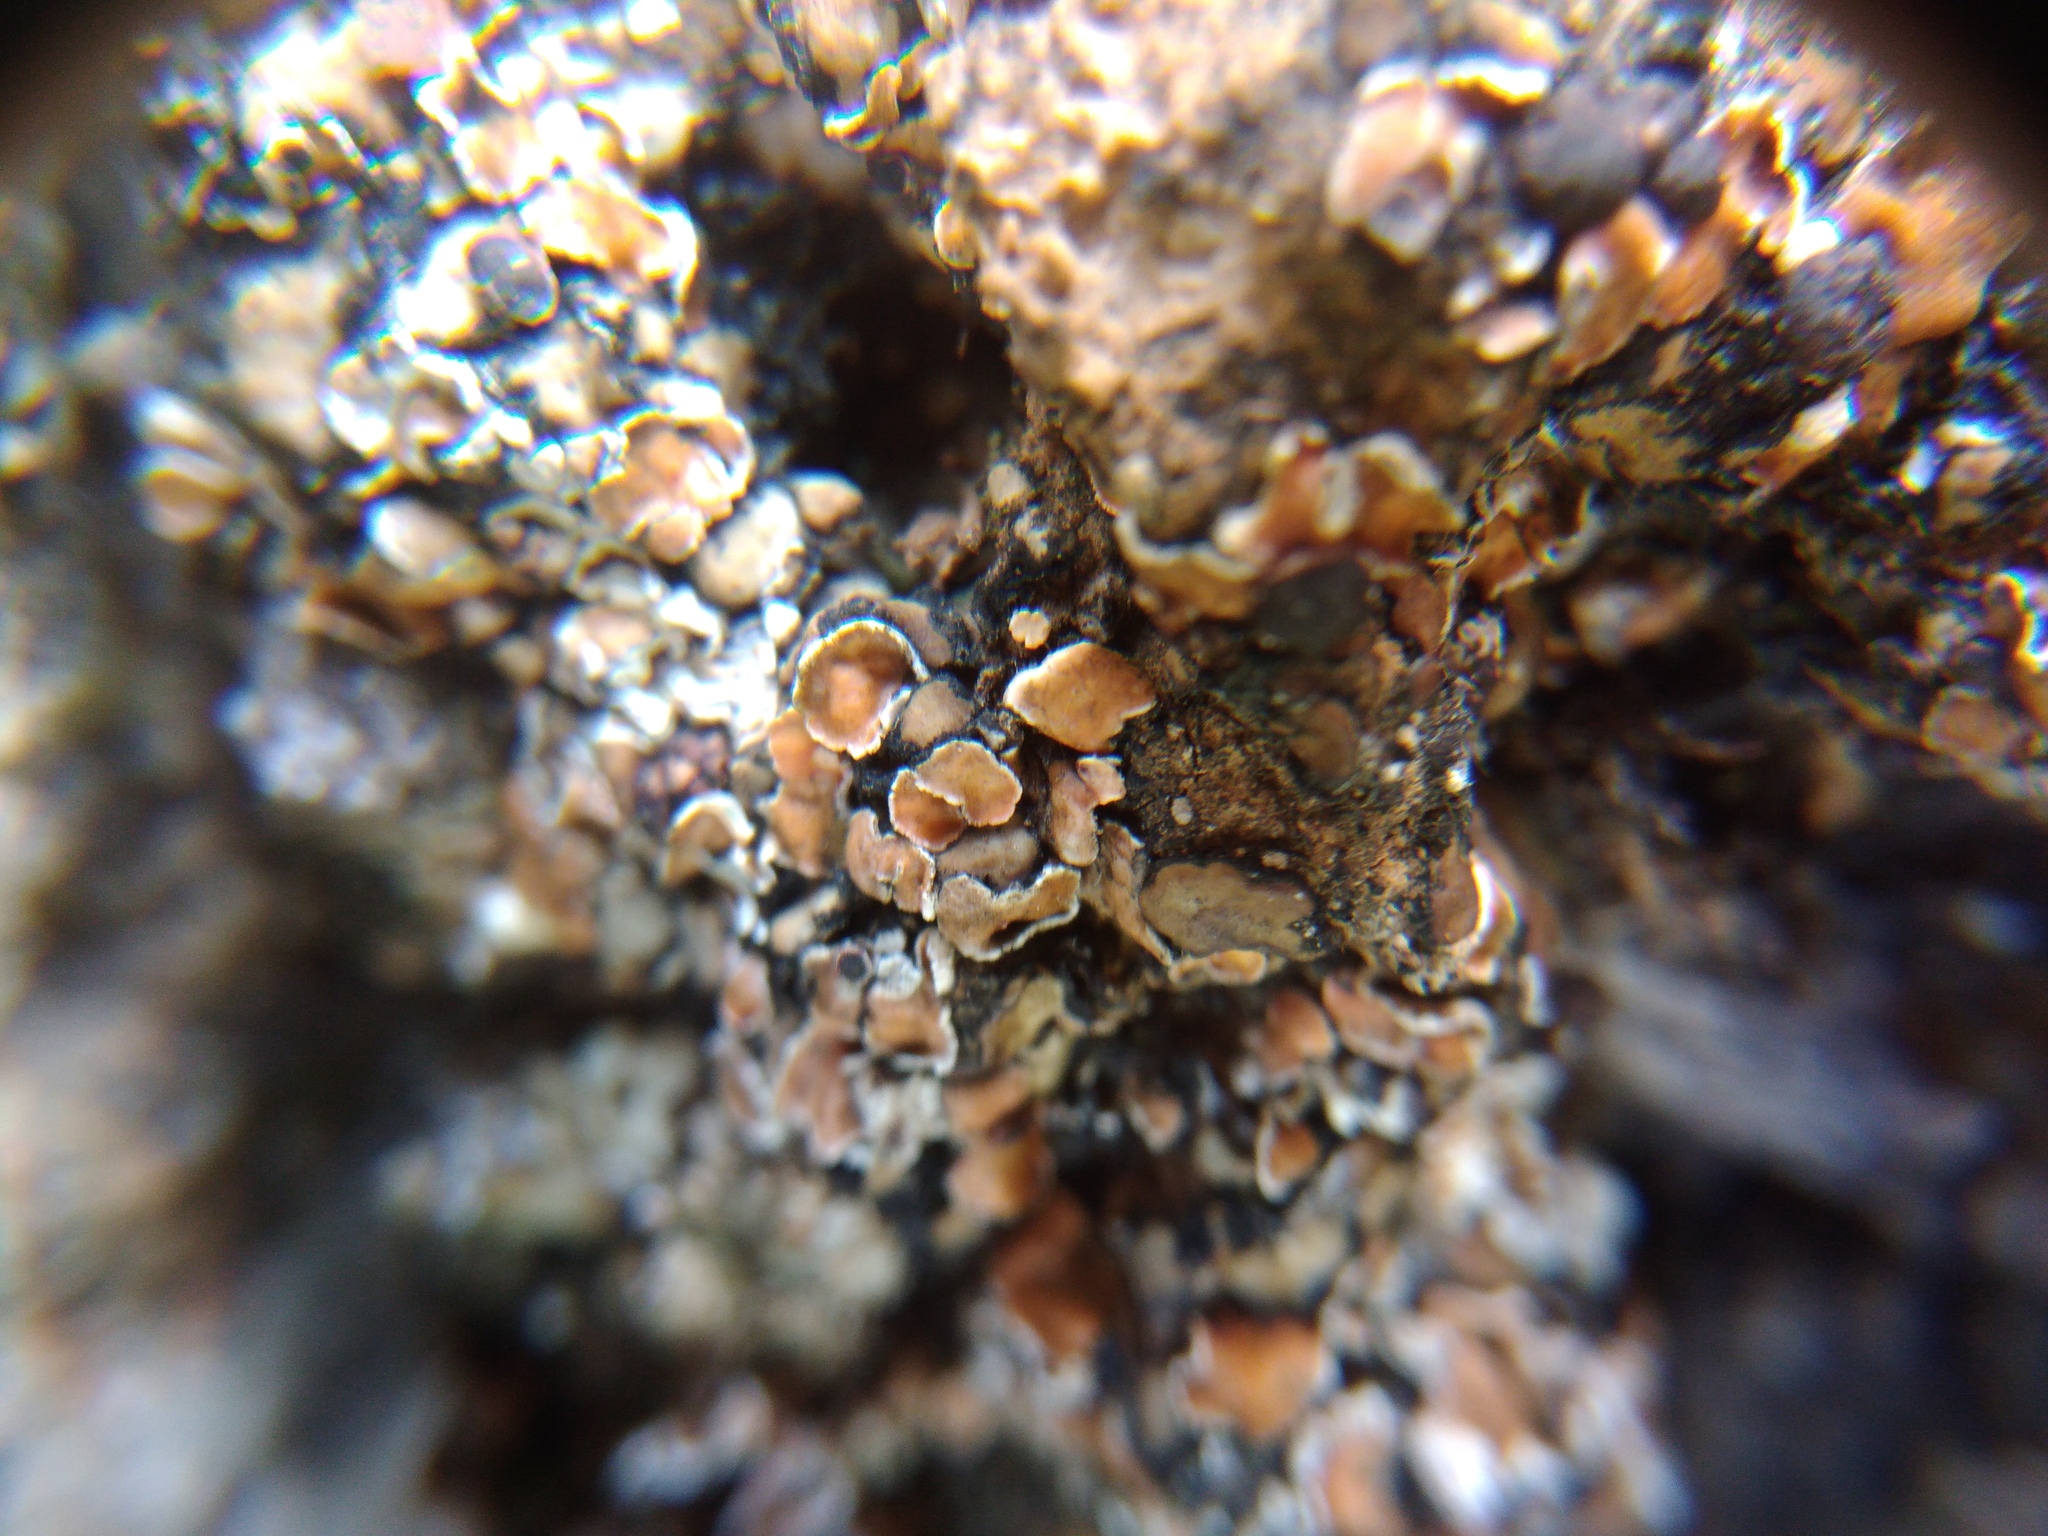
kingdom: Fungi
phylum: Ascomycota
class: Lecanoromycetes
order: Lecanorales
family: Psoraceae
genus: Psora
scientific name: Psora decipiens
